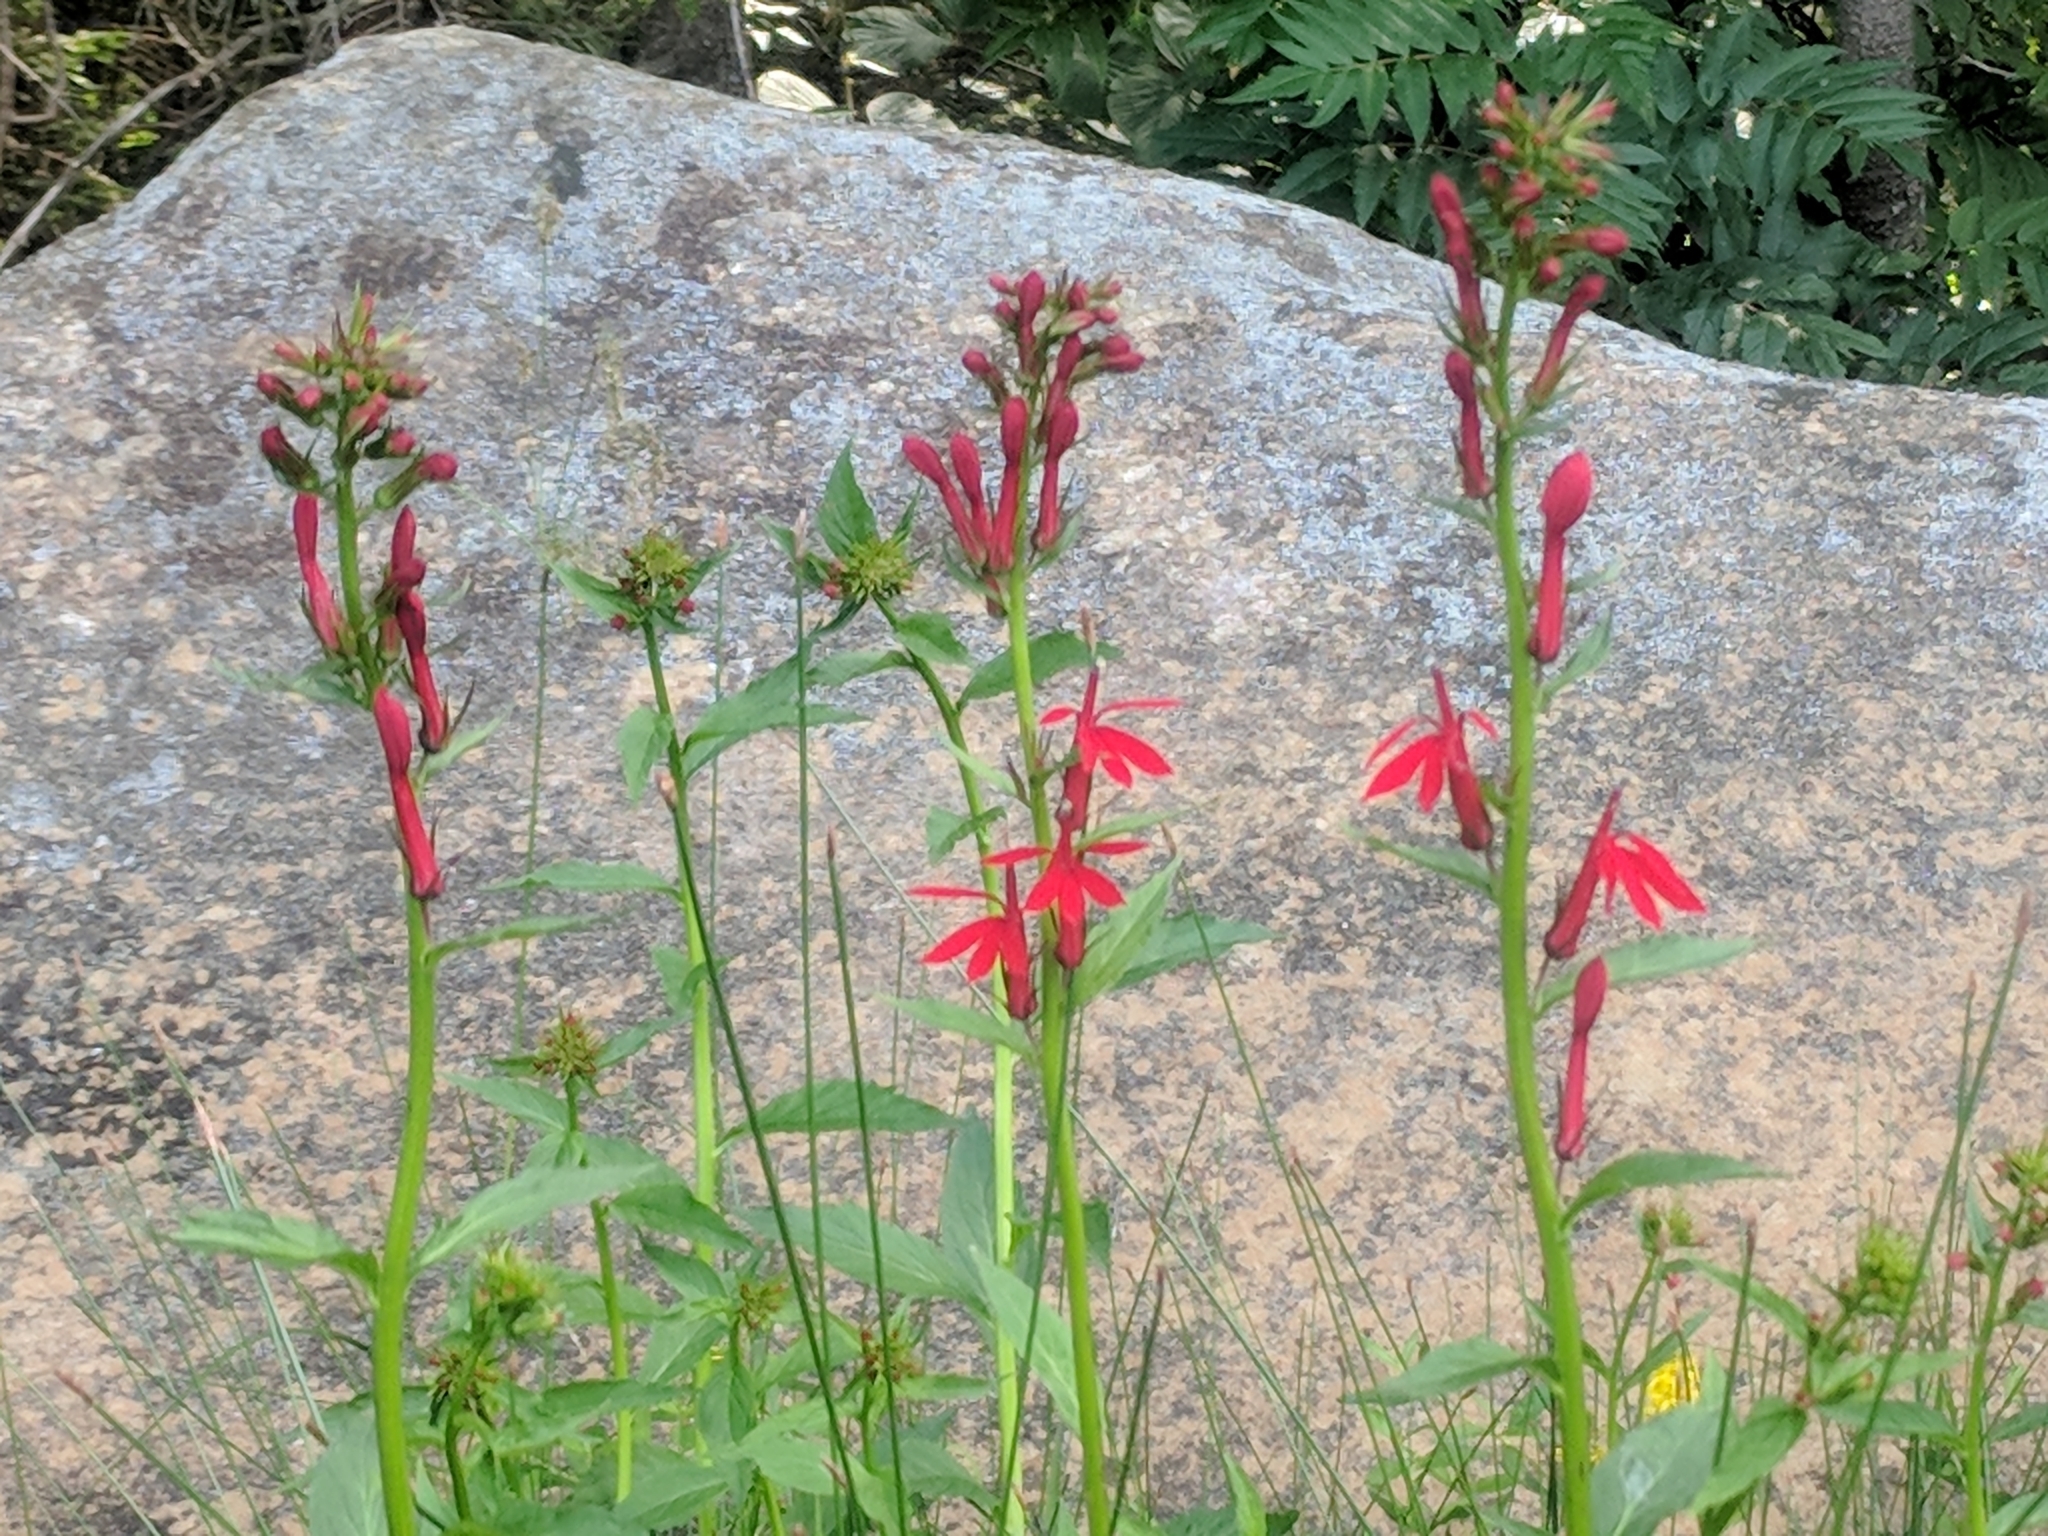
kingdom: Plantae
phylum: Tracheophyta
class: Magnoliopsida
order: Asterales
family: Campanulaceae
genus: Lobelia
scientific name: Lobelia cardinalis
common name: Cardinal flower
